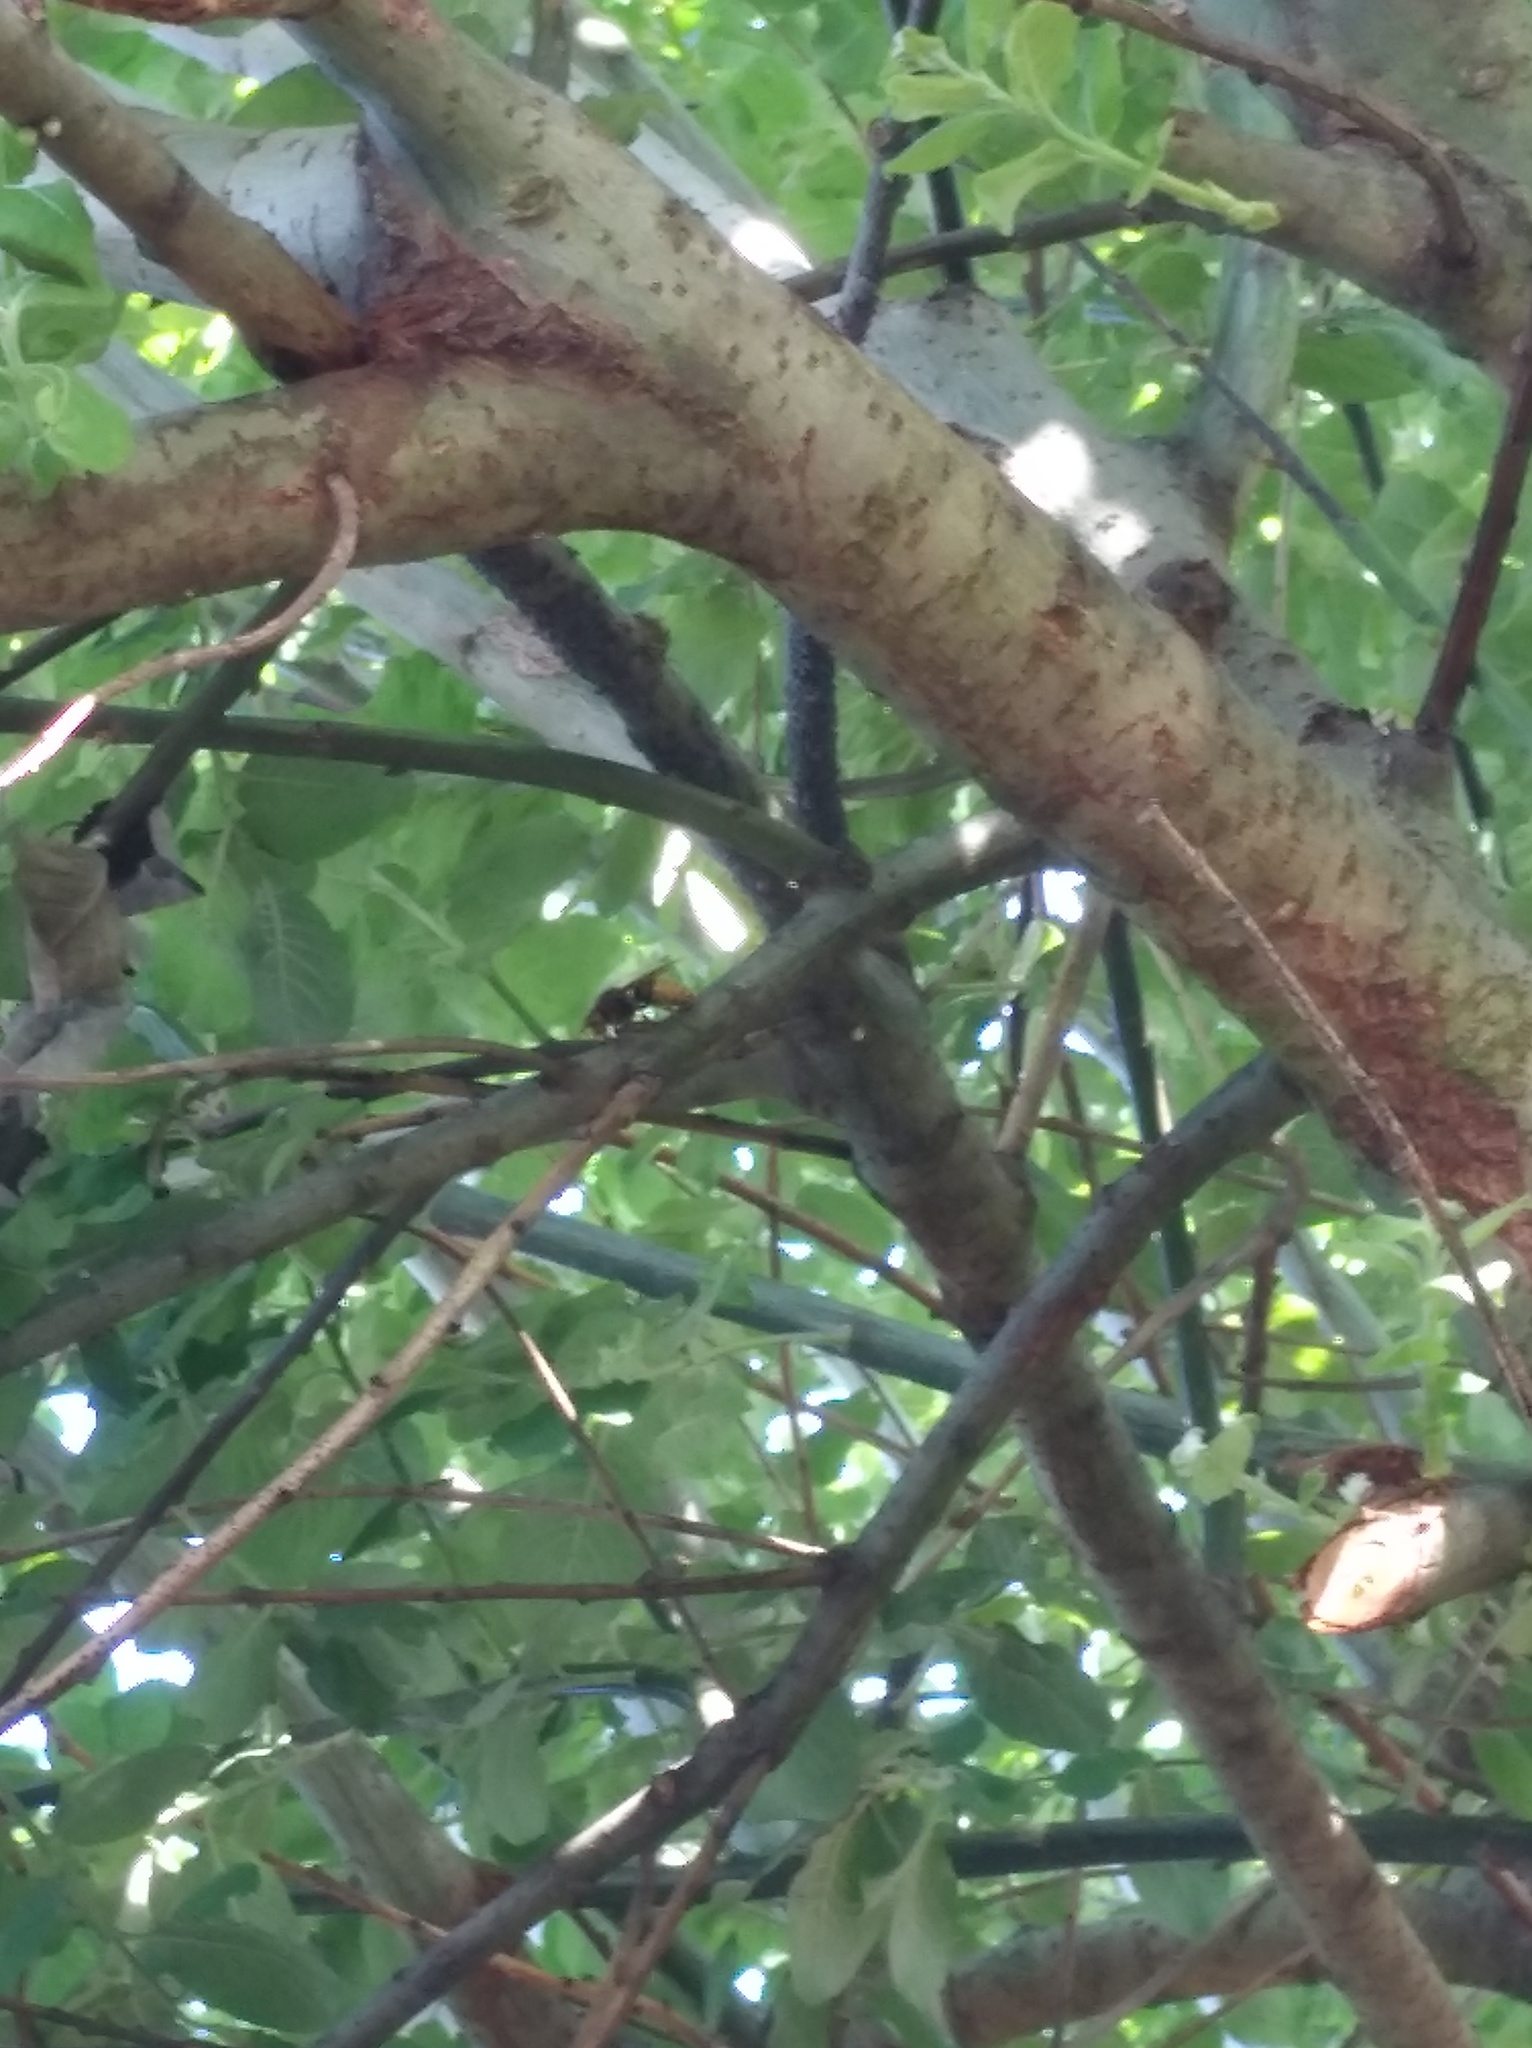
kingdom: Animalia
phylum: Arthropoda
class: Insecta
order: Hymenoptera
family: Vespidae
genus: Vespa
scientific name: Vespa crabro
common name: Hornet
